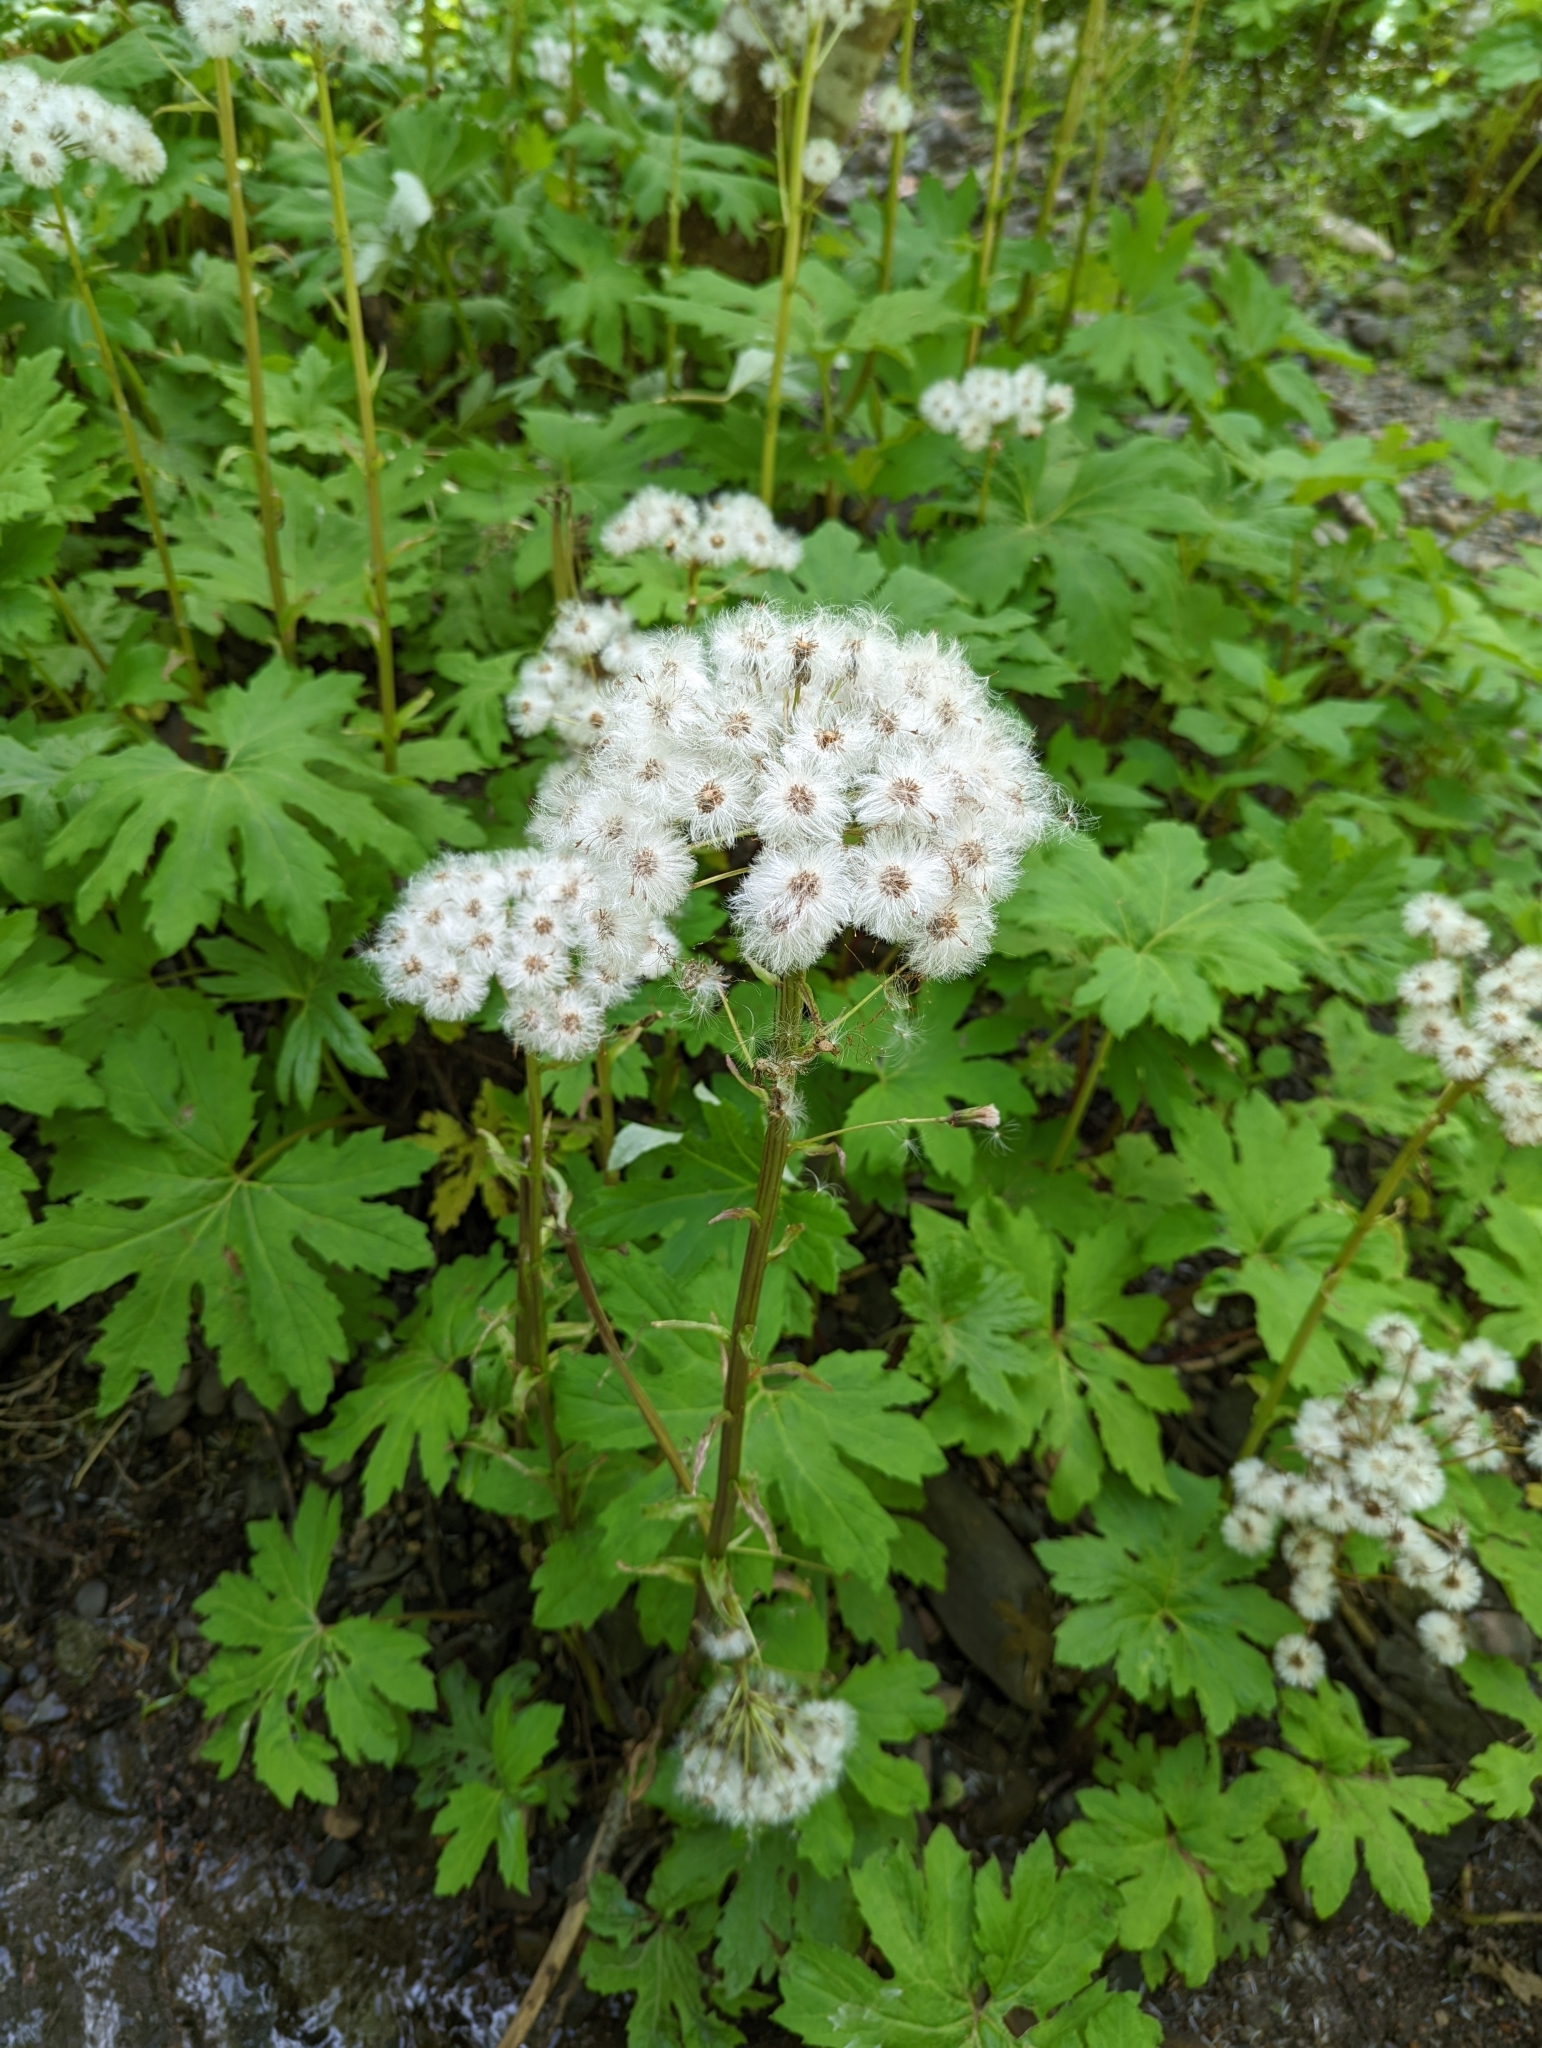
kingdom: Plantae
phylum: Tracheophyta
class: Magnoliopsida
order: Asterales
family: Asteraceae
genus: Petasites
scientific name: Petasites frigidus
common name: Arctic butterbur
